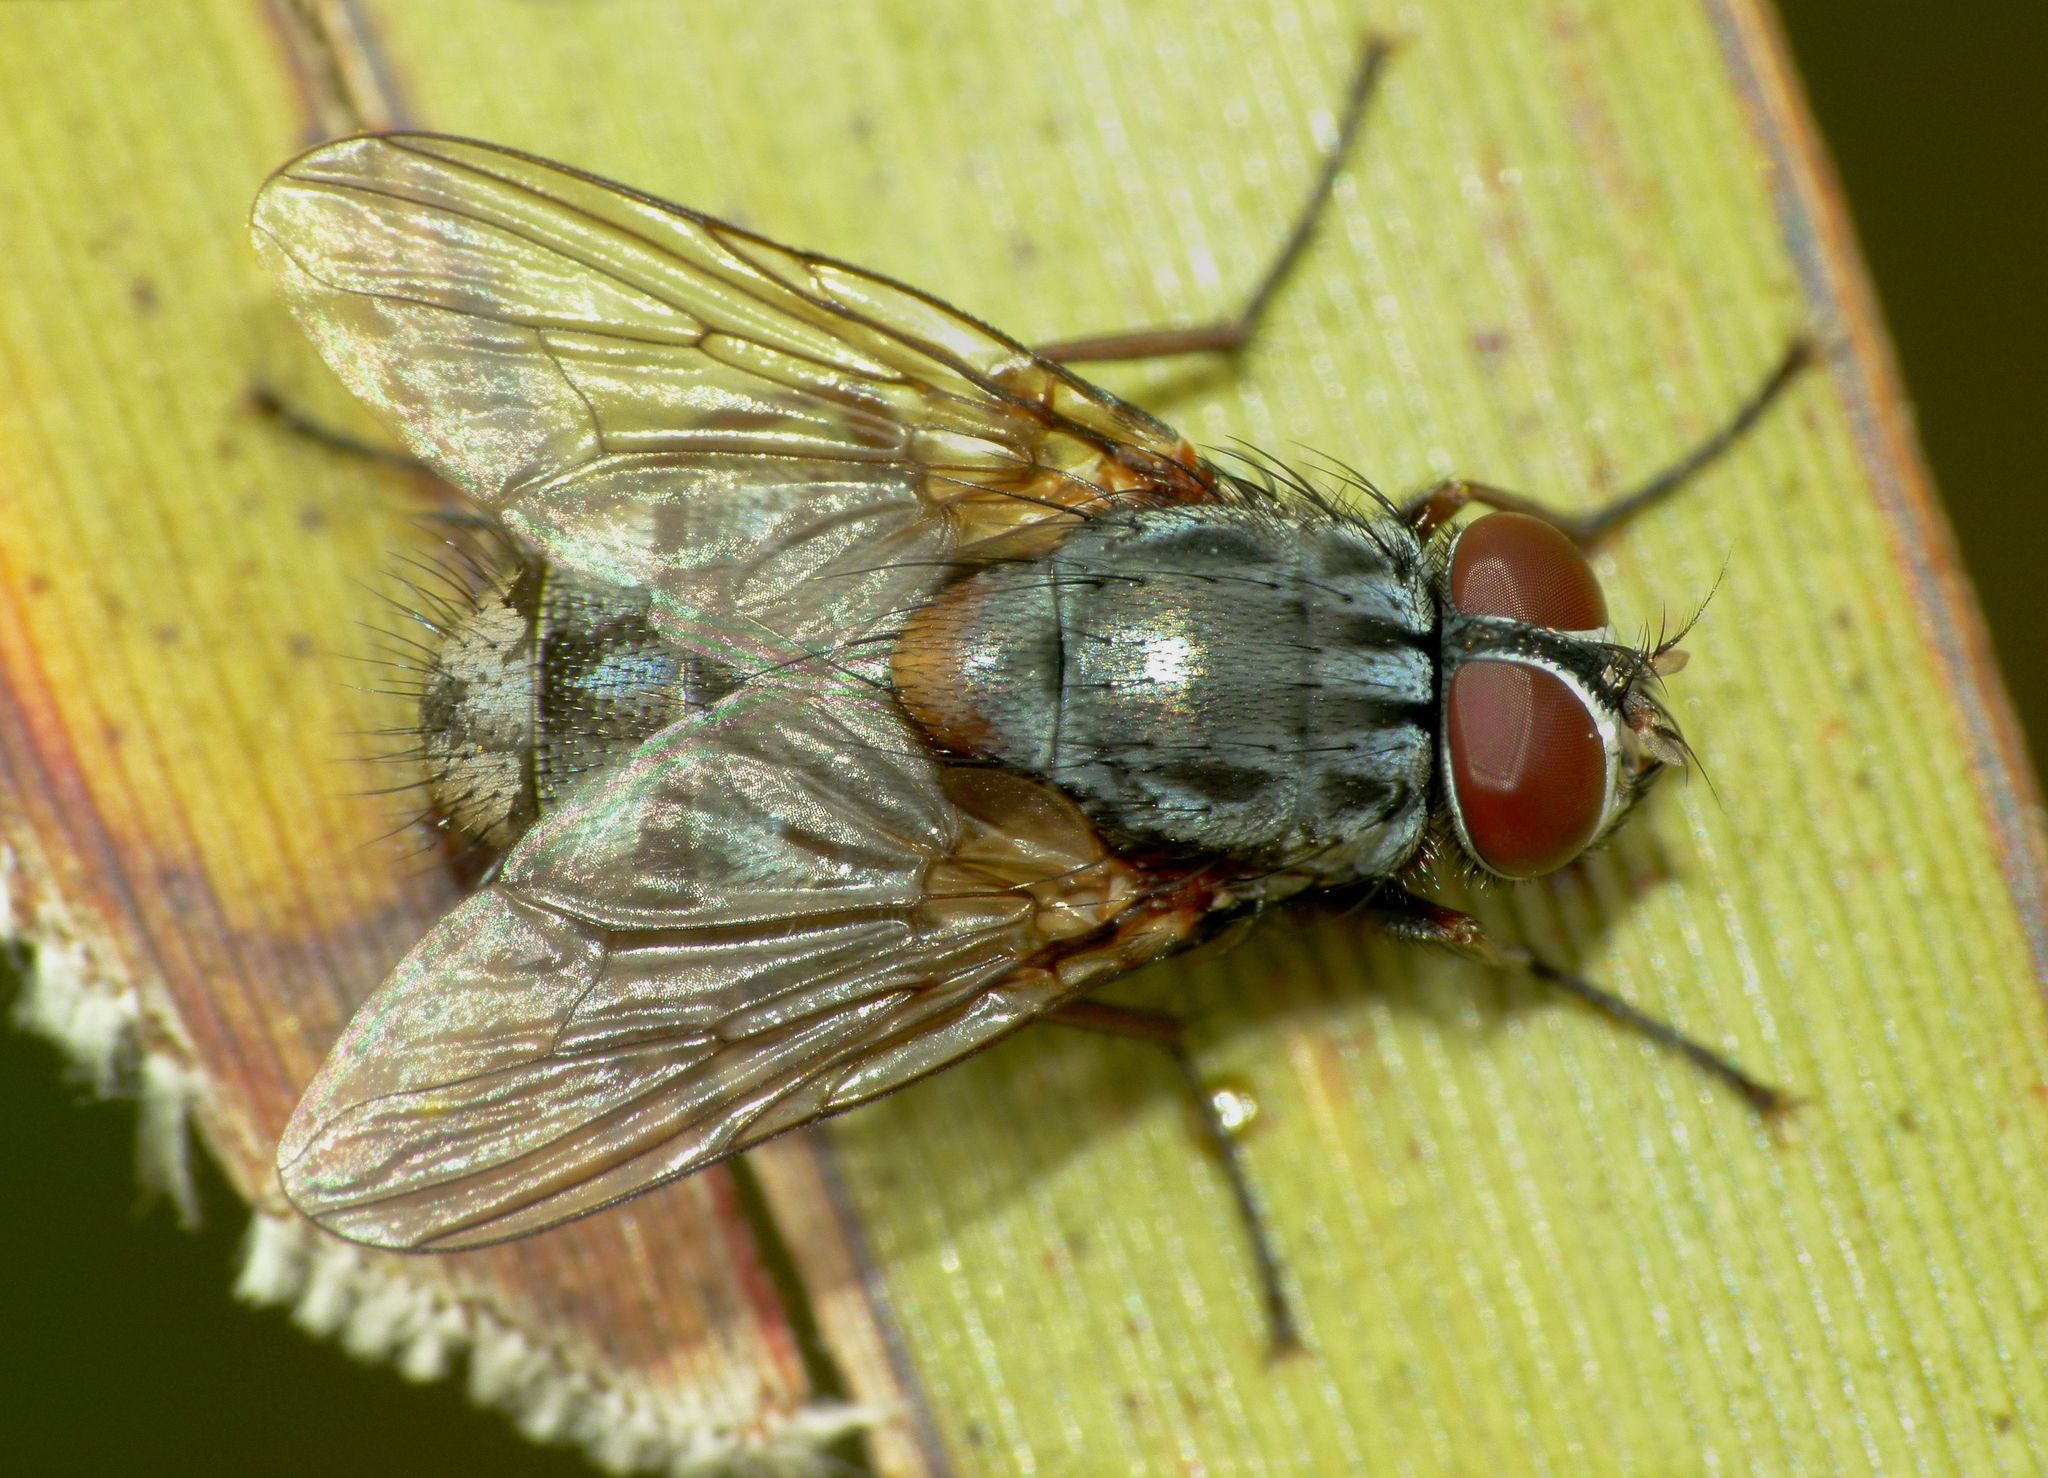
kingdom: Animalia
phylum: Arthropoda
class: Insecta
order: Diptera
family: Muscidae
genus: Muscina
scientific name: Muscina stabulans
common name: False stable fly
